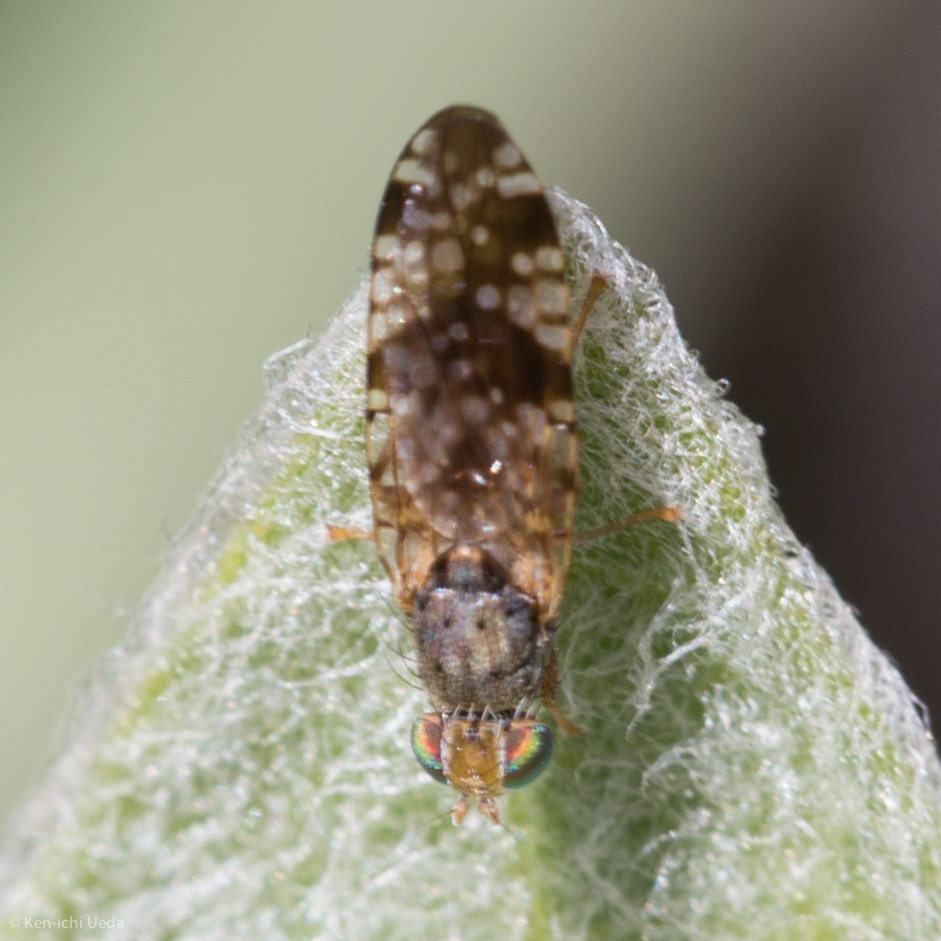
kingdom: Animalia
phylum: Arthropoda
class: Insecta
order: Diptera
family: Tephritidae
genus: Neotephritis
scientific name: Neotephritis finalis
